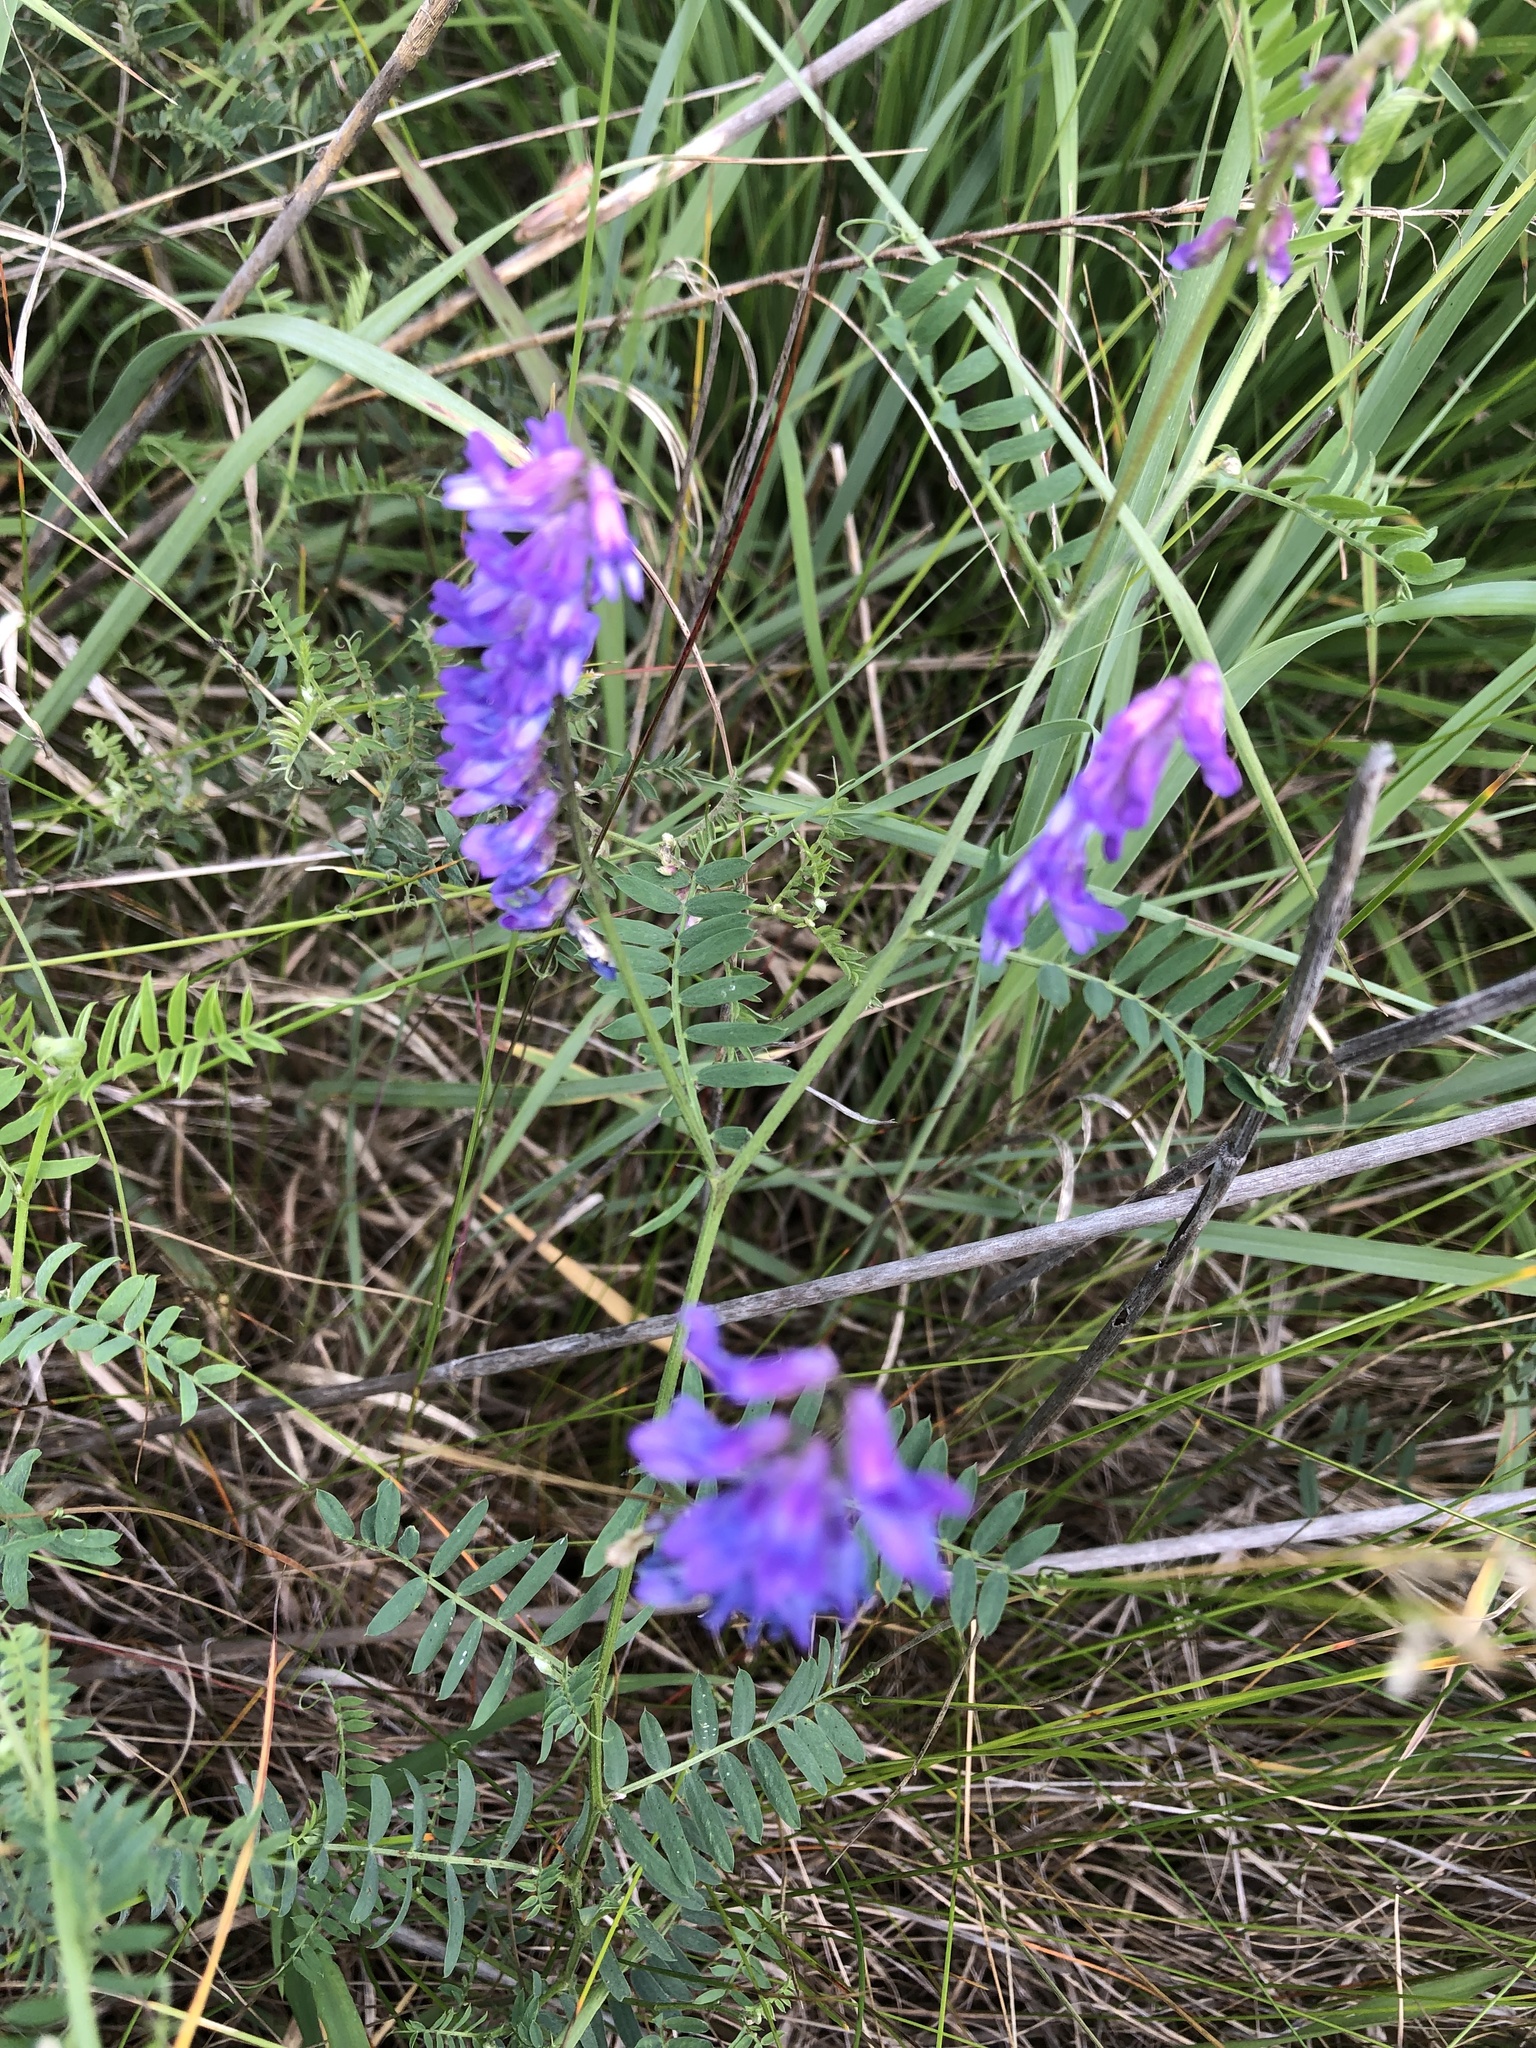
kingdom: Plantae
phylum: Tracheophyta
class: Magnoliopsida
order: Fabales
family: Fabaceae
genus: Vicia
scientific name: Vicia cracca
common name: Bird vetch
